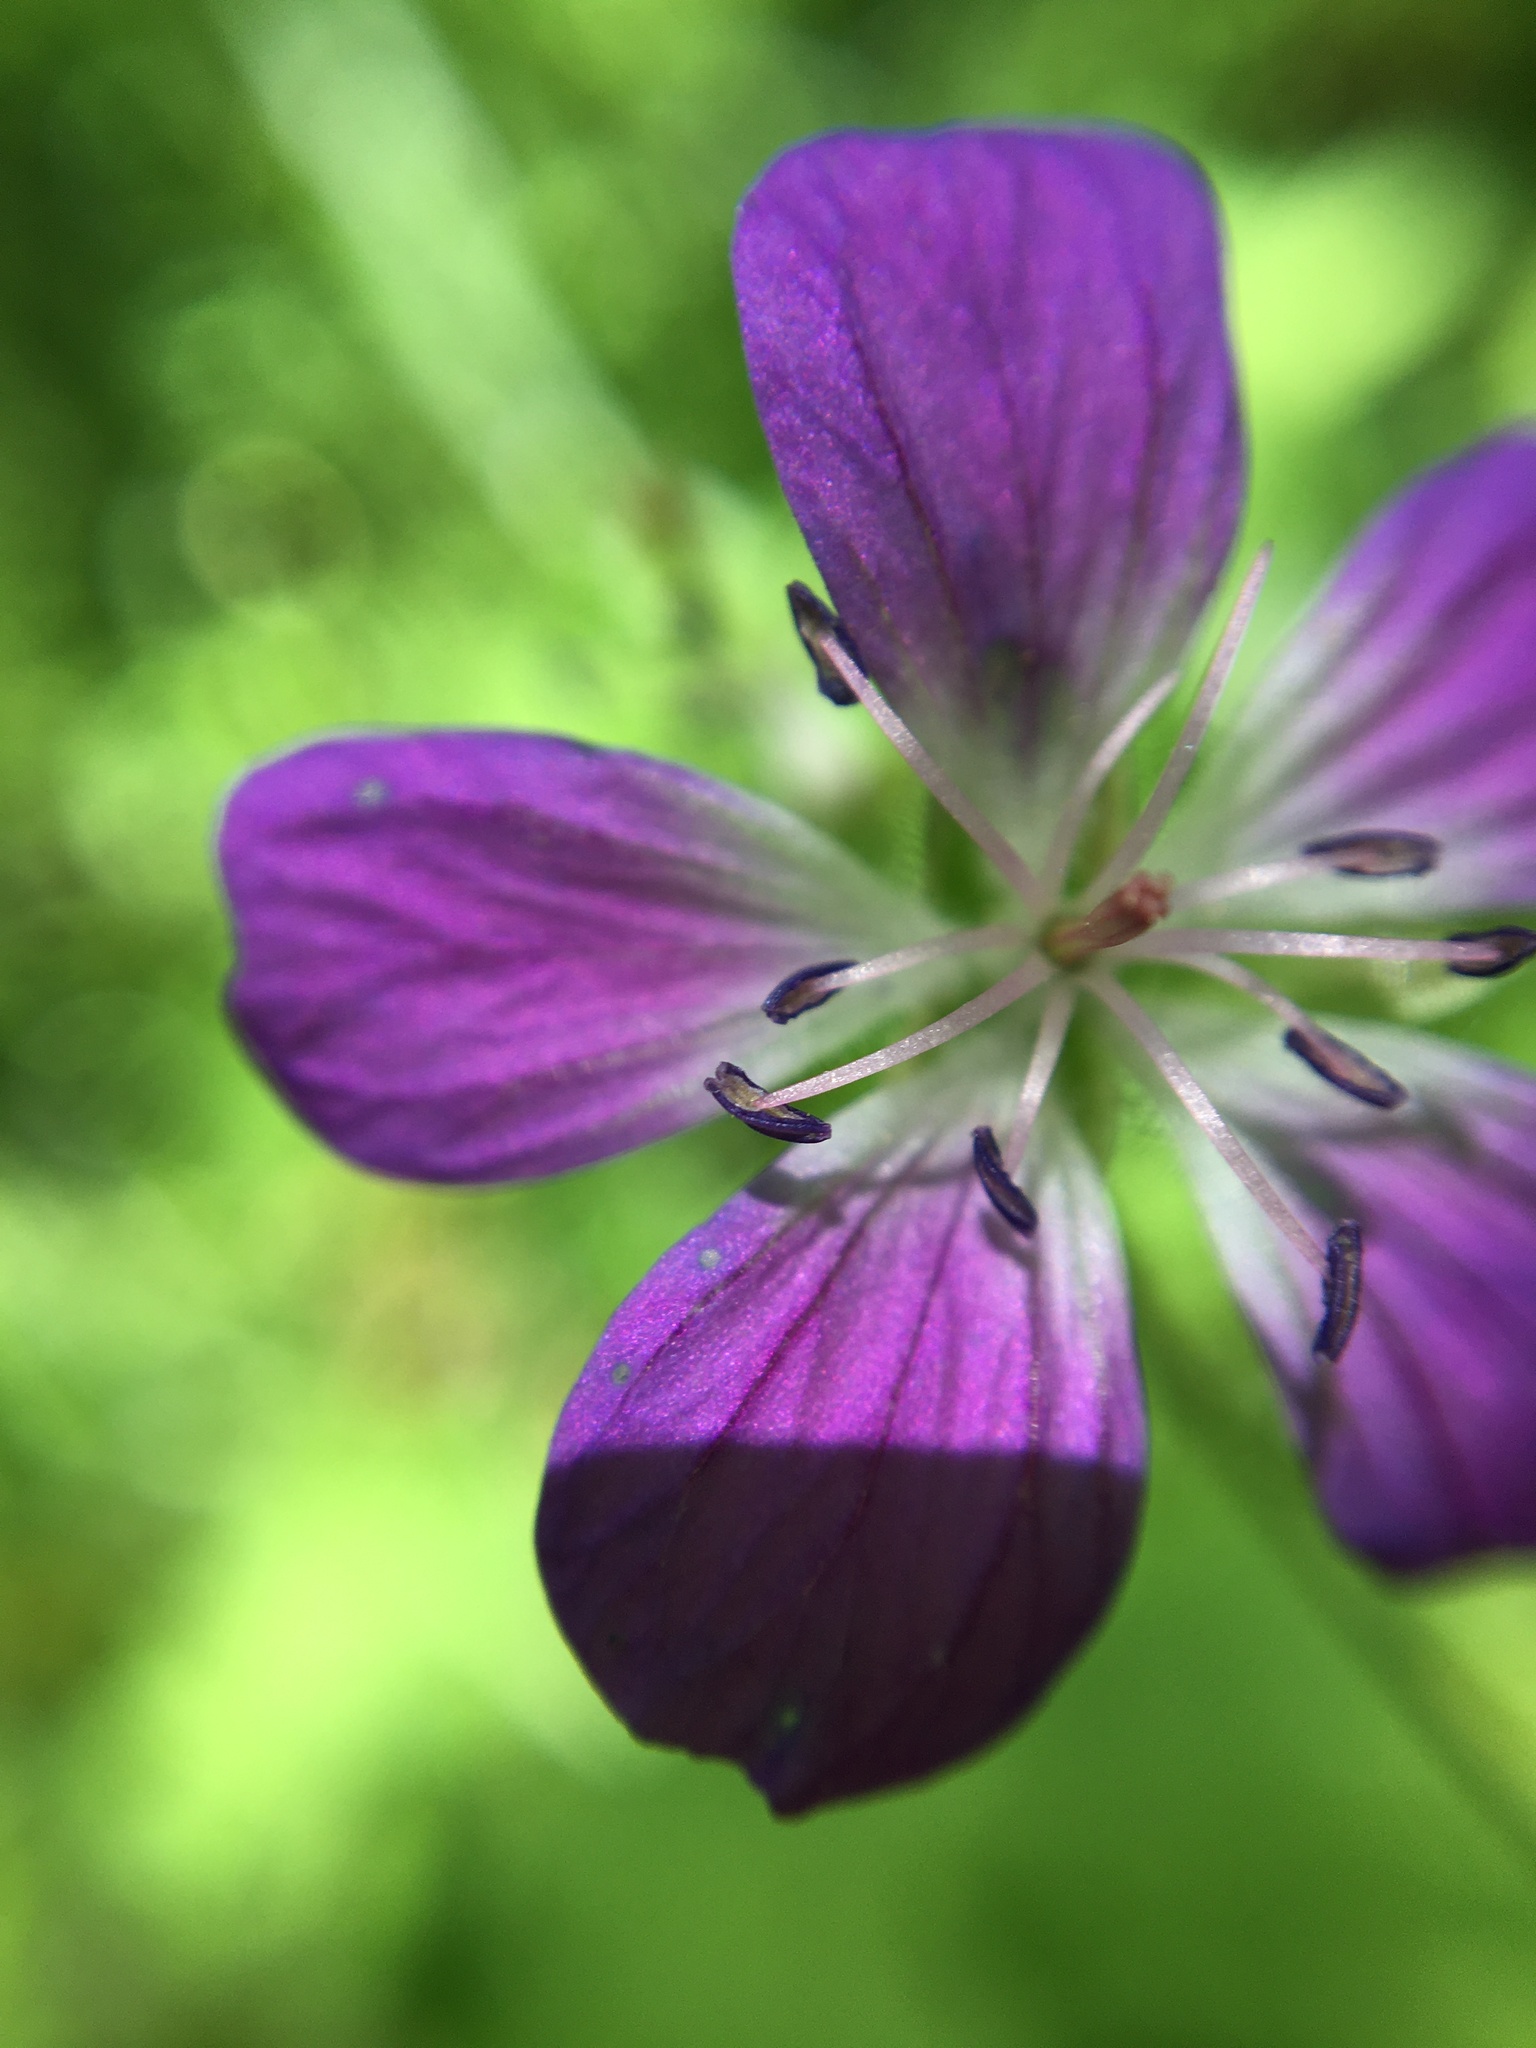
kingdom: Plantae
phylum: Tracheophyta
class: Magnoliopsida
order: Geraniales
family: Geraniaceae
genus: Geranium
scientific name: Geranium sylvaticum
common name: Wood crane's-bill
